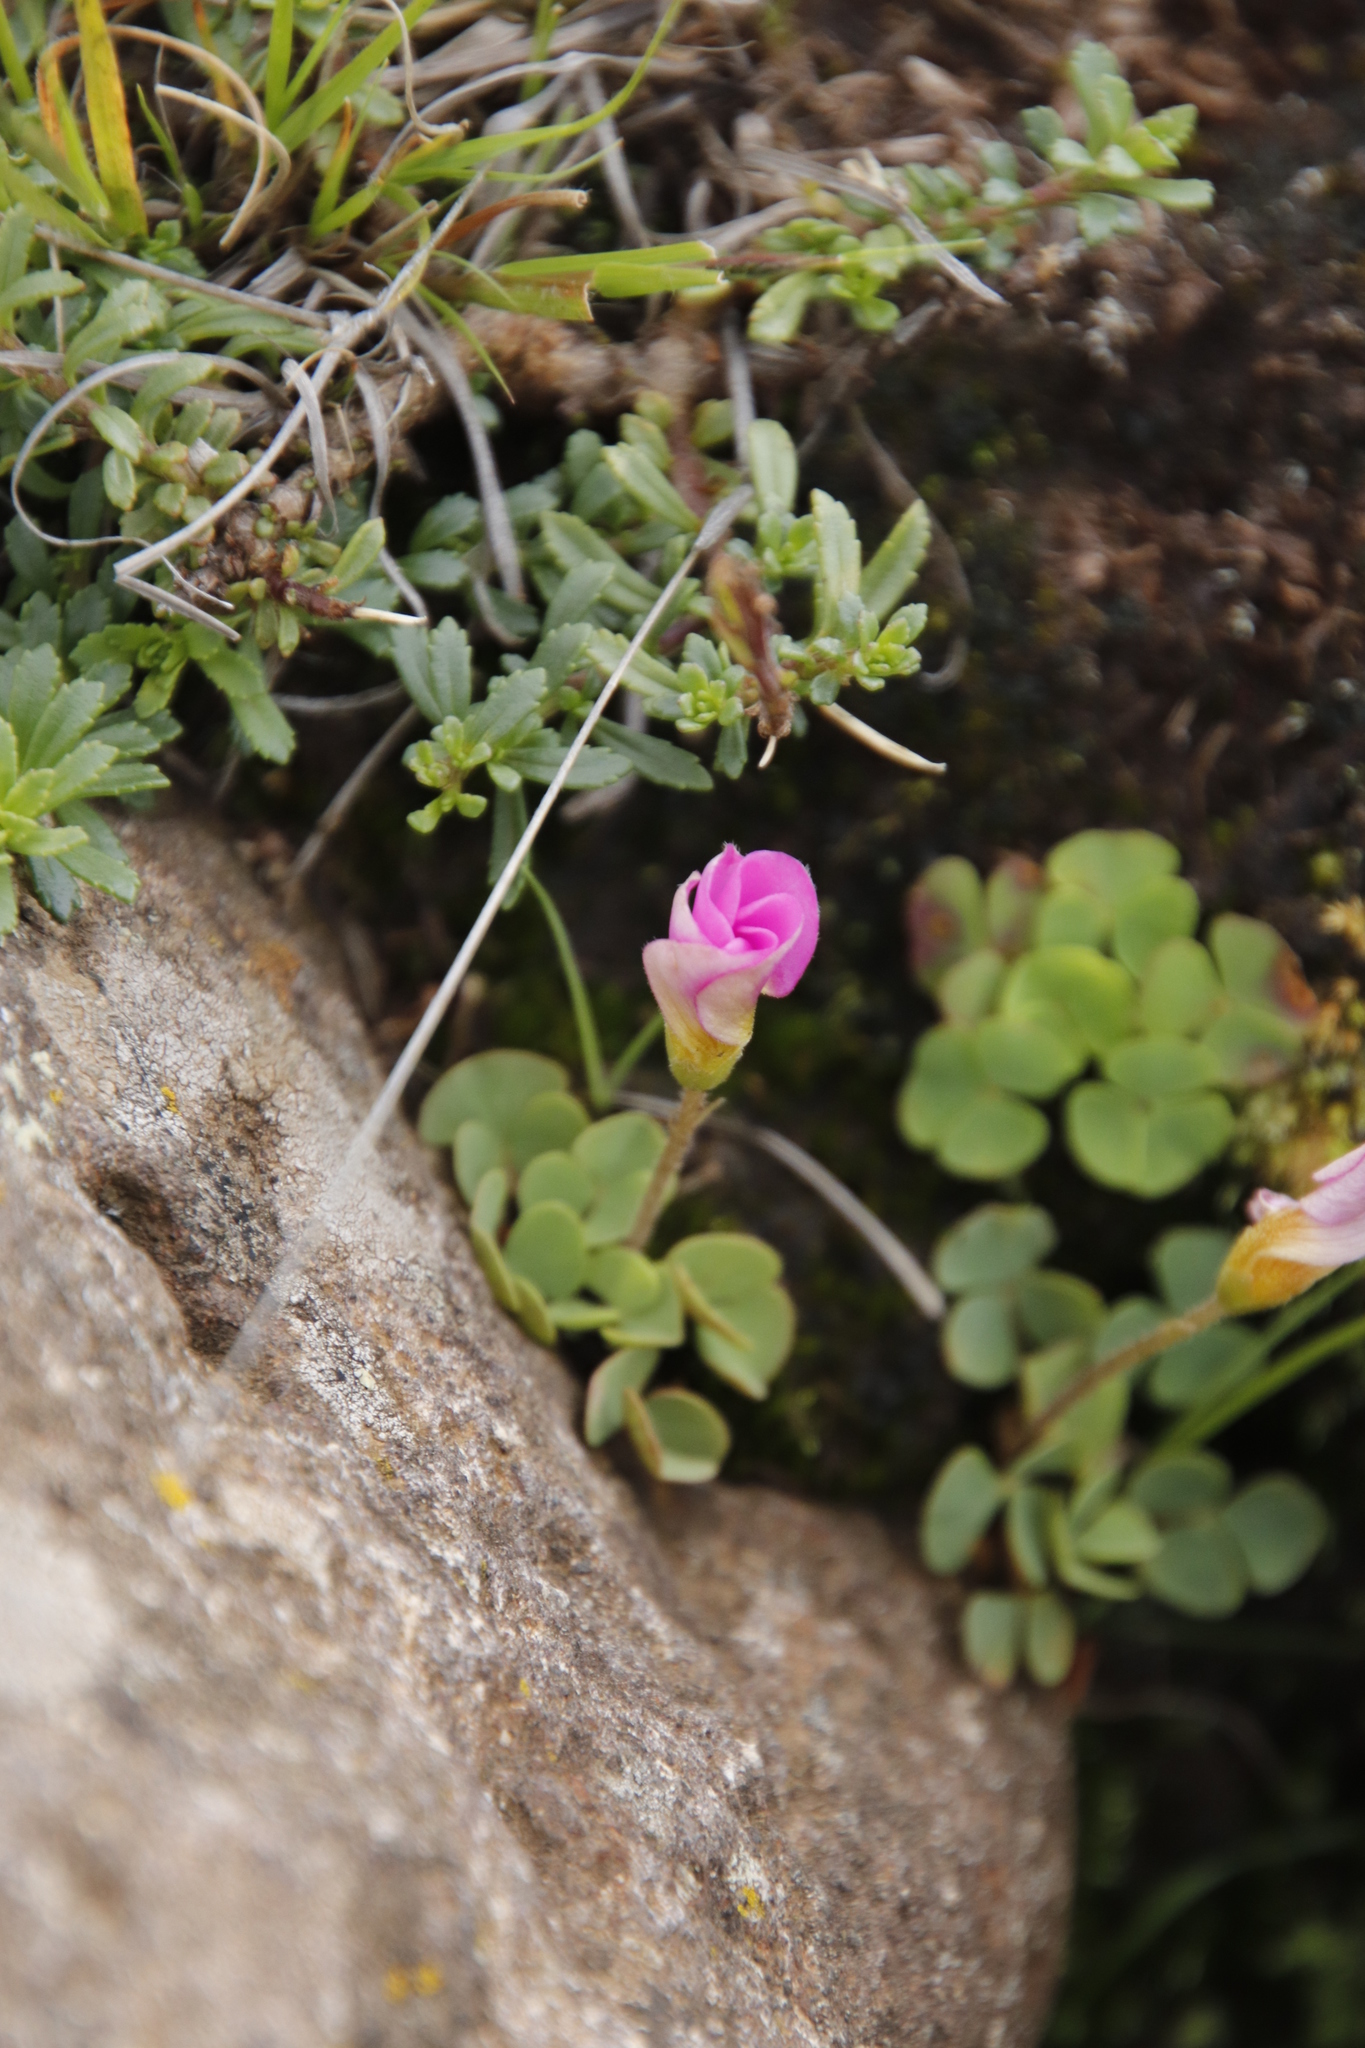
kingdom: Plantae
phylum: Tracheophyta
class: Magnoliopsida
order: Oxalidales
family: Oxalidaceae
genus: Oxalis
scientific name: Oxalis obliquifolia
